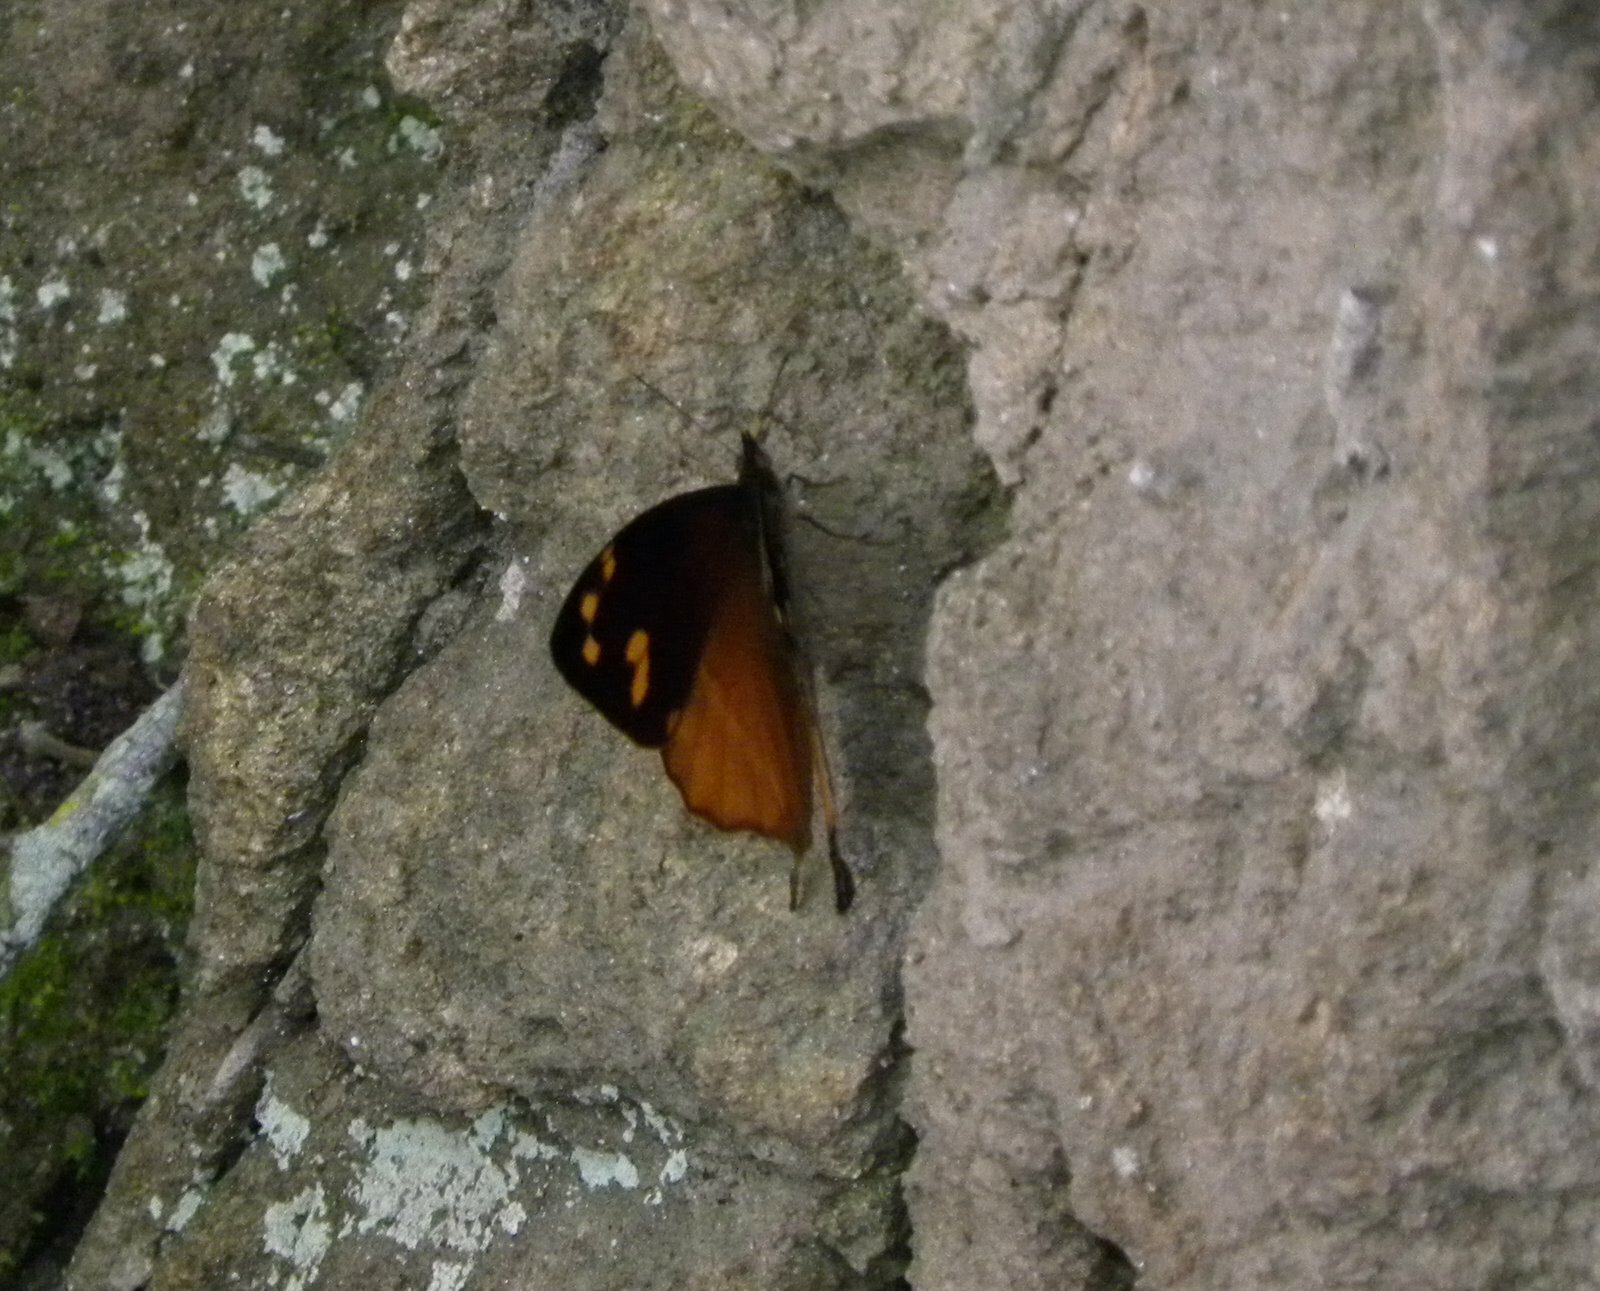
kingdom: Animalia
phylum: Arthropoda
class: Insecta
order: Lepidoptera
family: Nymphalidae
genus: Corades
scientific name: Corades enyo
